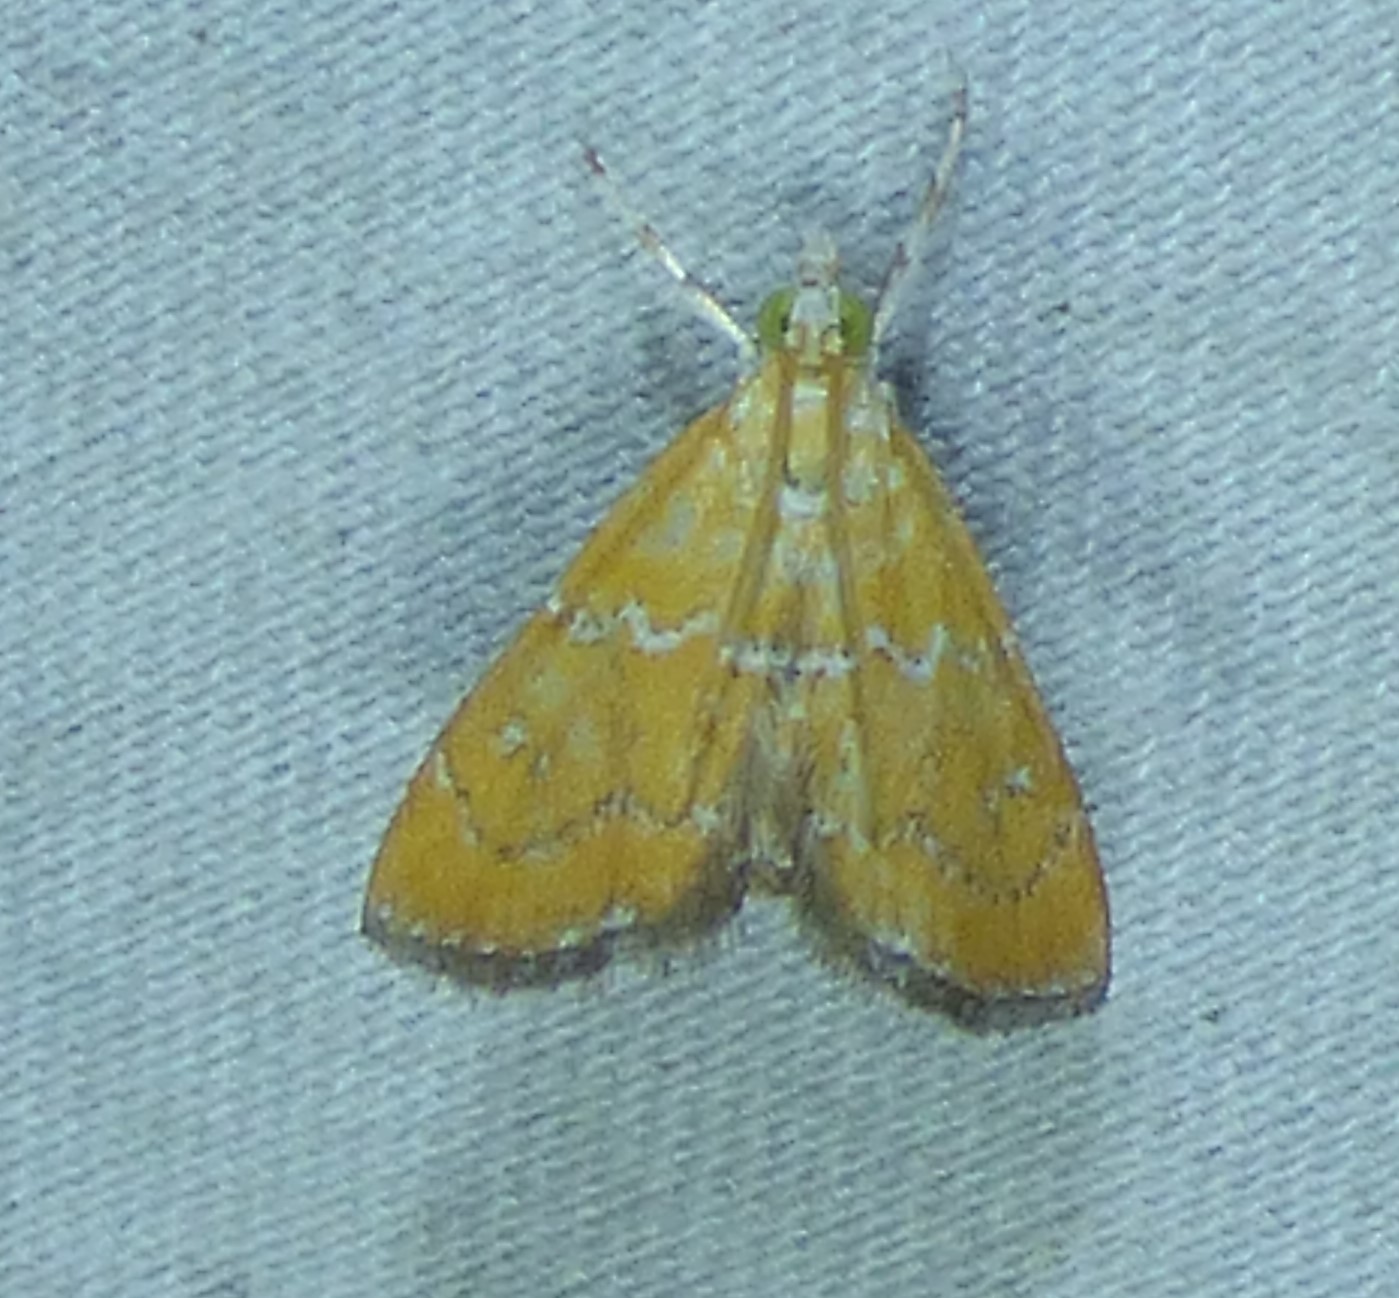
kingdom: Animalia
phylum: Arthropoda
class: Insecta
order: Lepidoptera
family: Crambidae
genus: Xanthophysa
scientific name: Xanthophysa psychicalis
